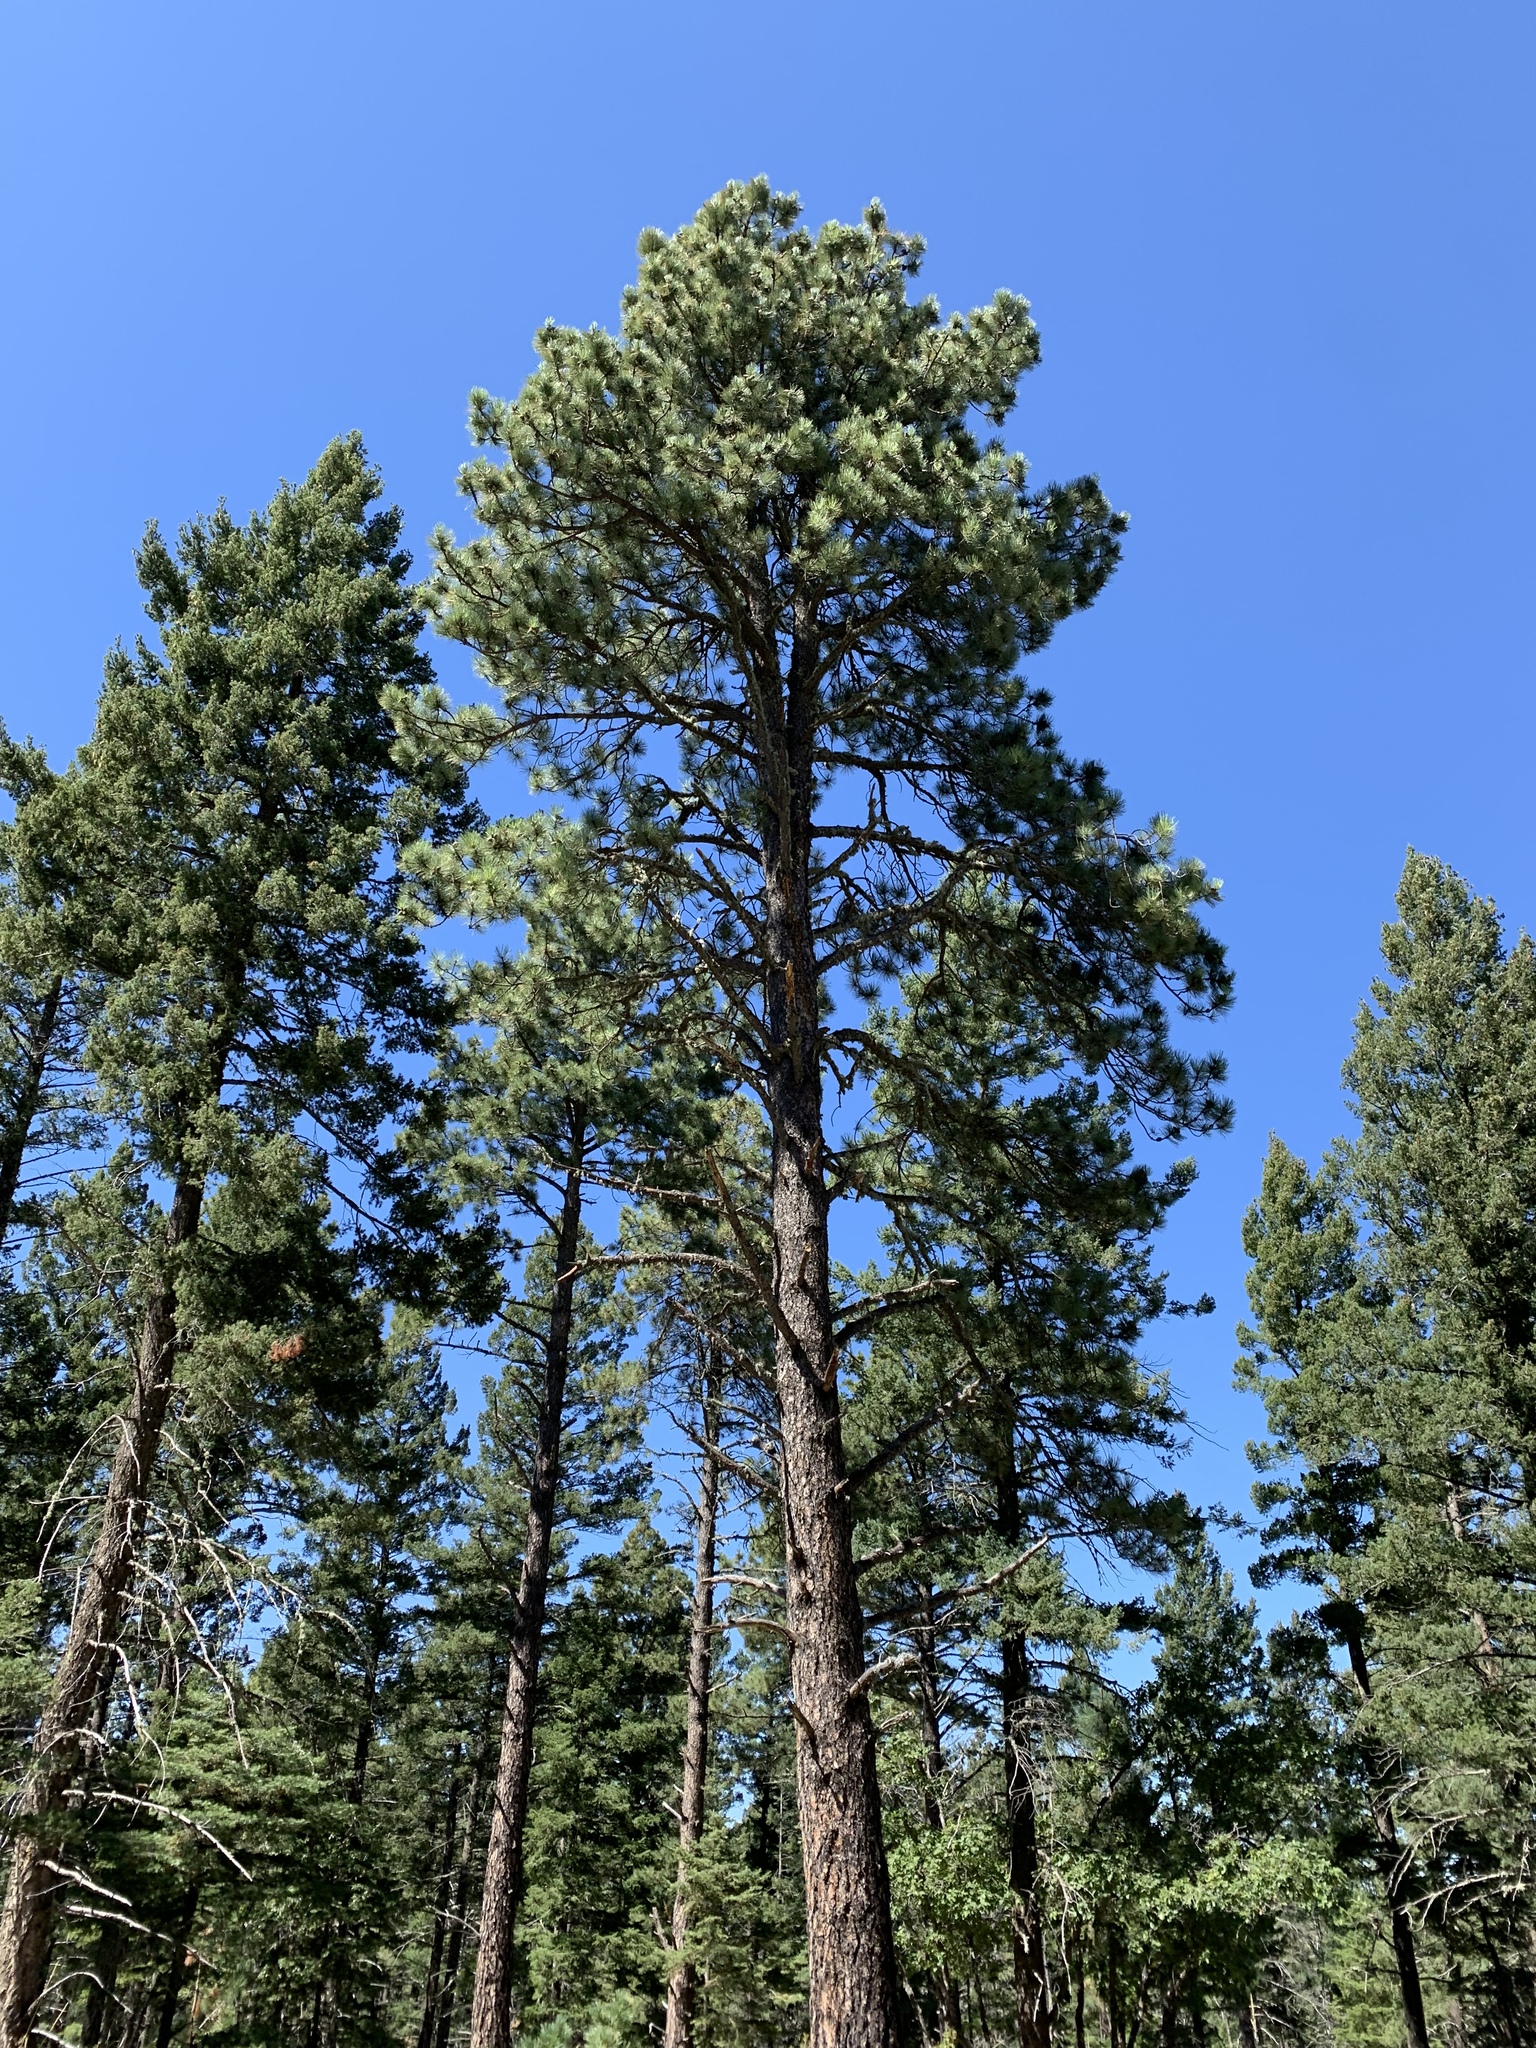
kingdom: Plantae
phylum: Tracheophyta
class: Pinopsida
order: Pinales
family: Pinaceae
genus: Pinus
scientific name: Pinus ponderosa
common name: Western yellow-pine
